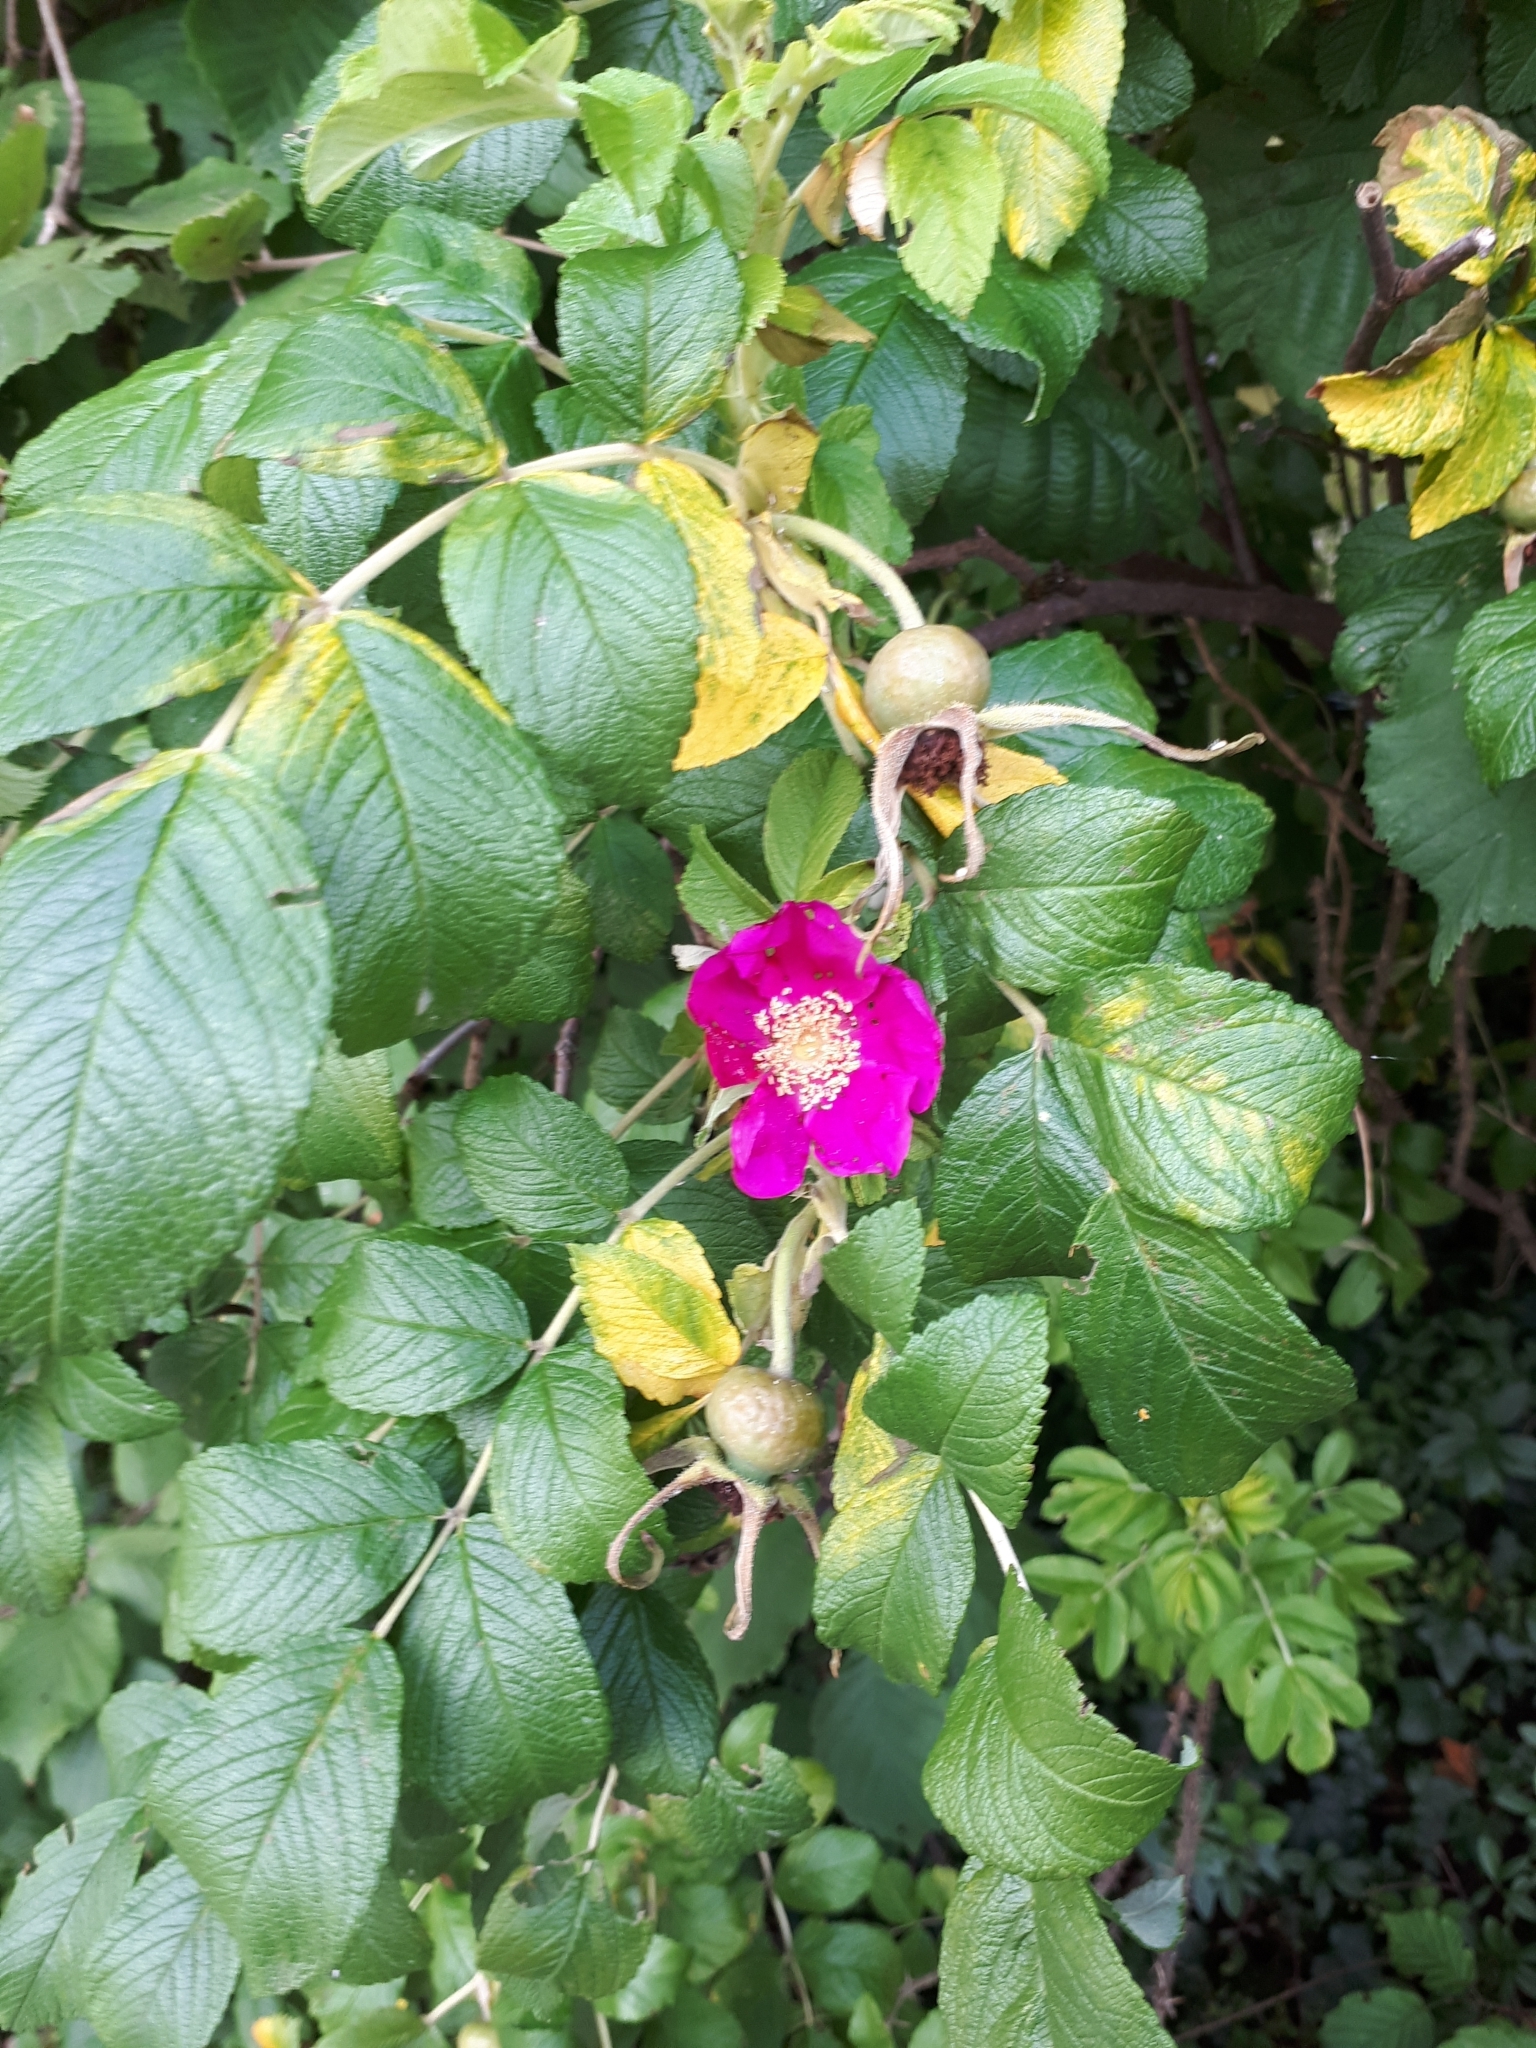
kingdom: Plantae
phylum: Tracheophyta
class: Magnoliopsida
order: Rosales
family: Rosaceae
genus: Rosa
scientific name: Rosa rugosa
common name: Japanese rose
